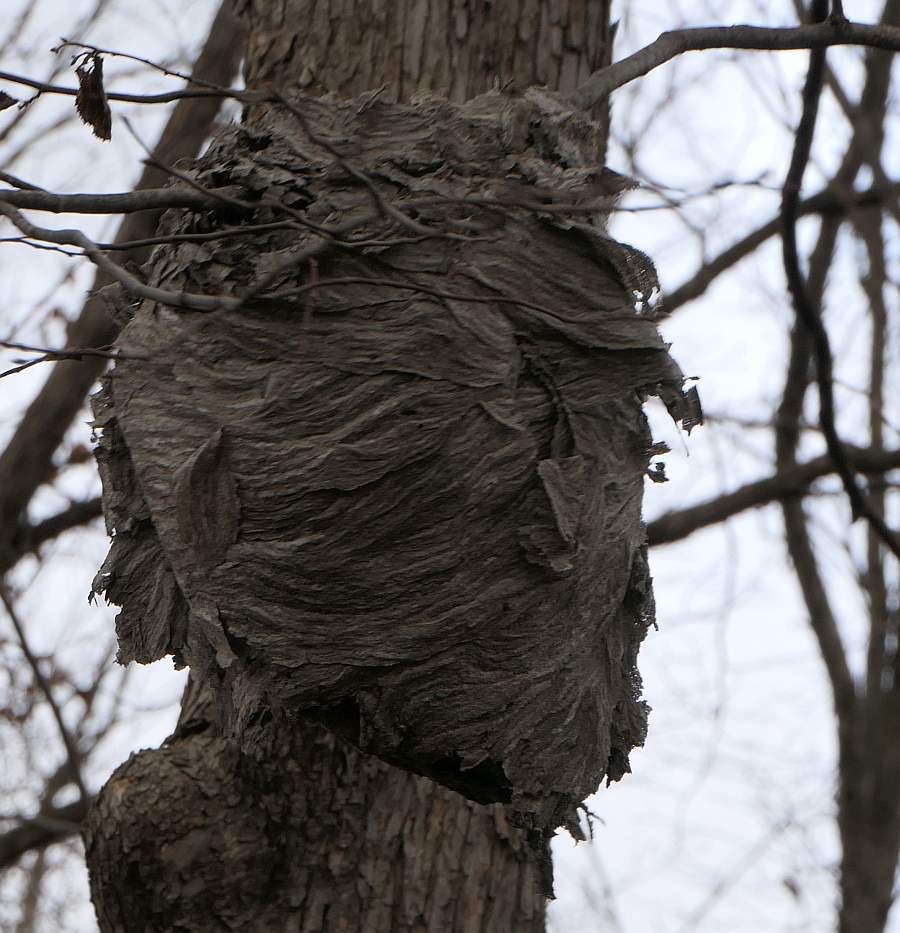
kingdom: Animalia
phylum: Arthropoda
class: Insecta
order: Hymenoptera
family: Vespidae
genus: Dolichovespula
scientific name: Dolichovespula
